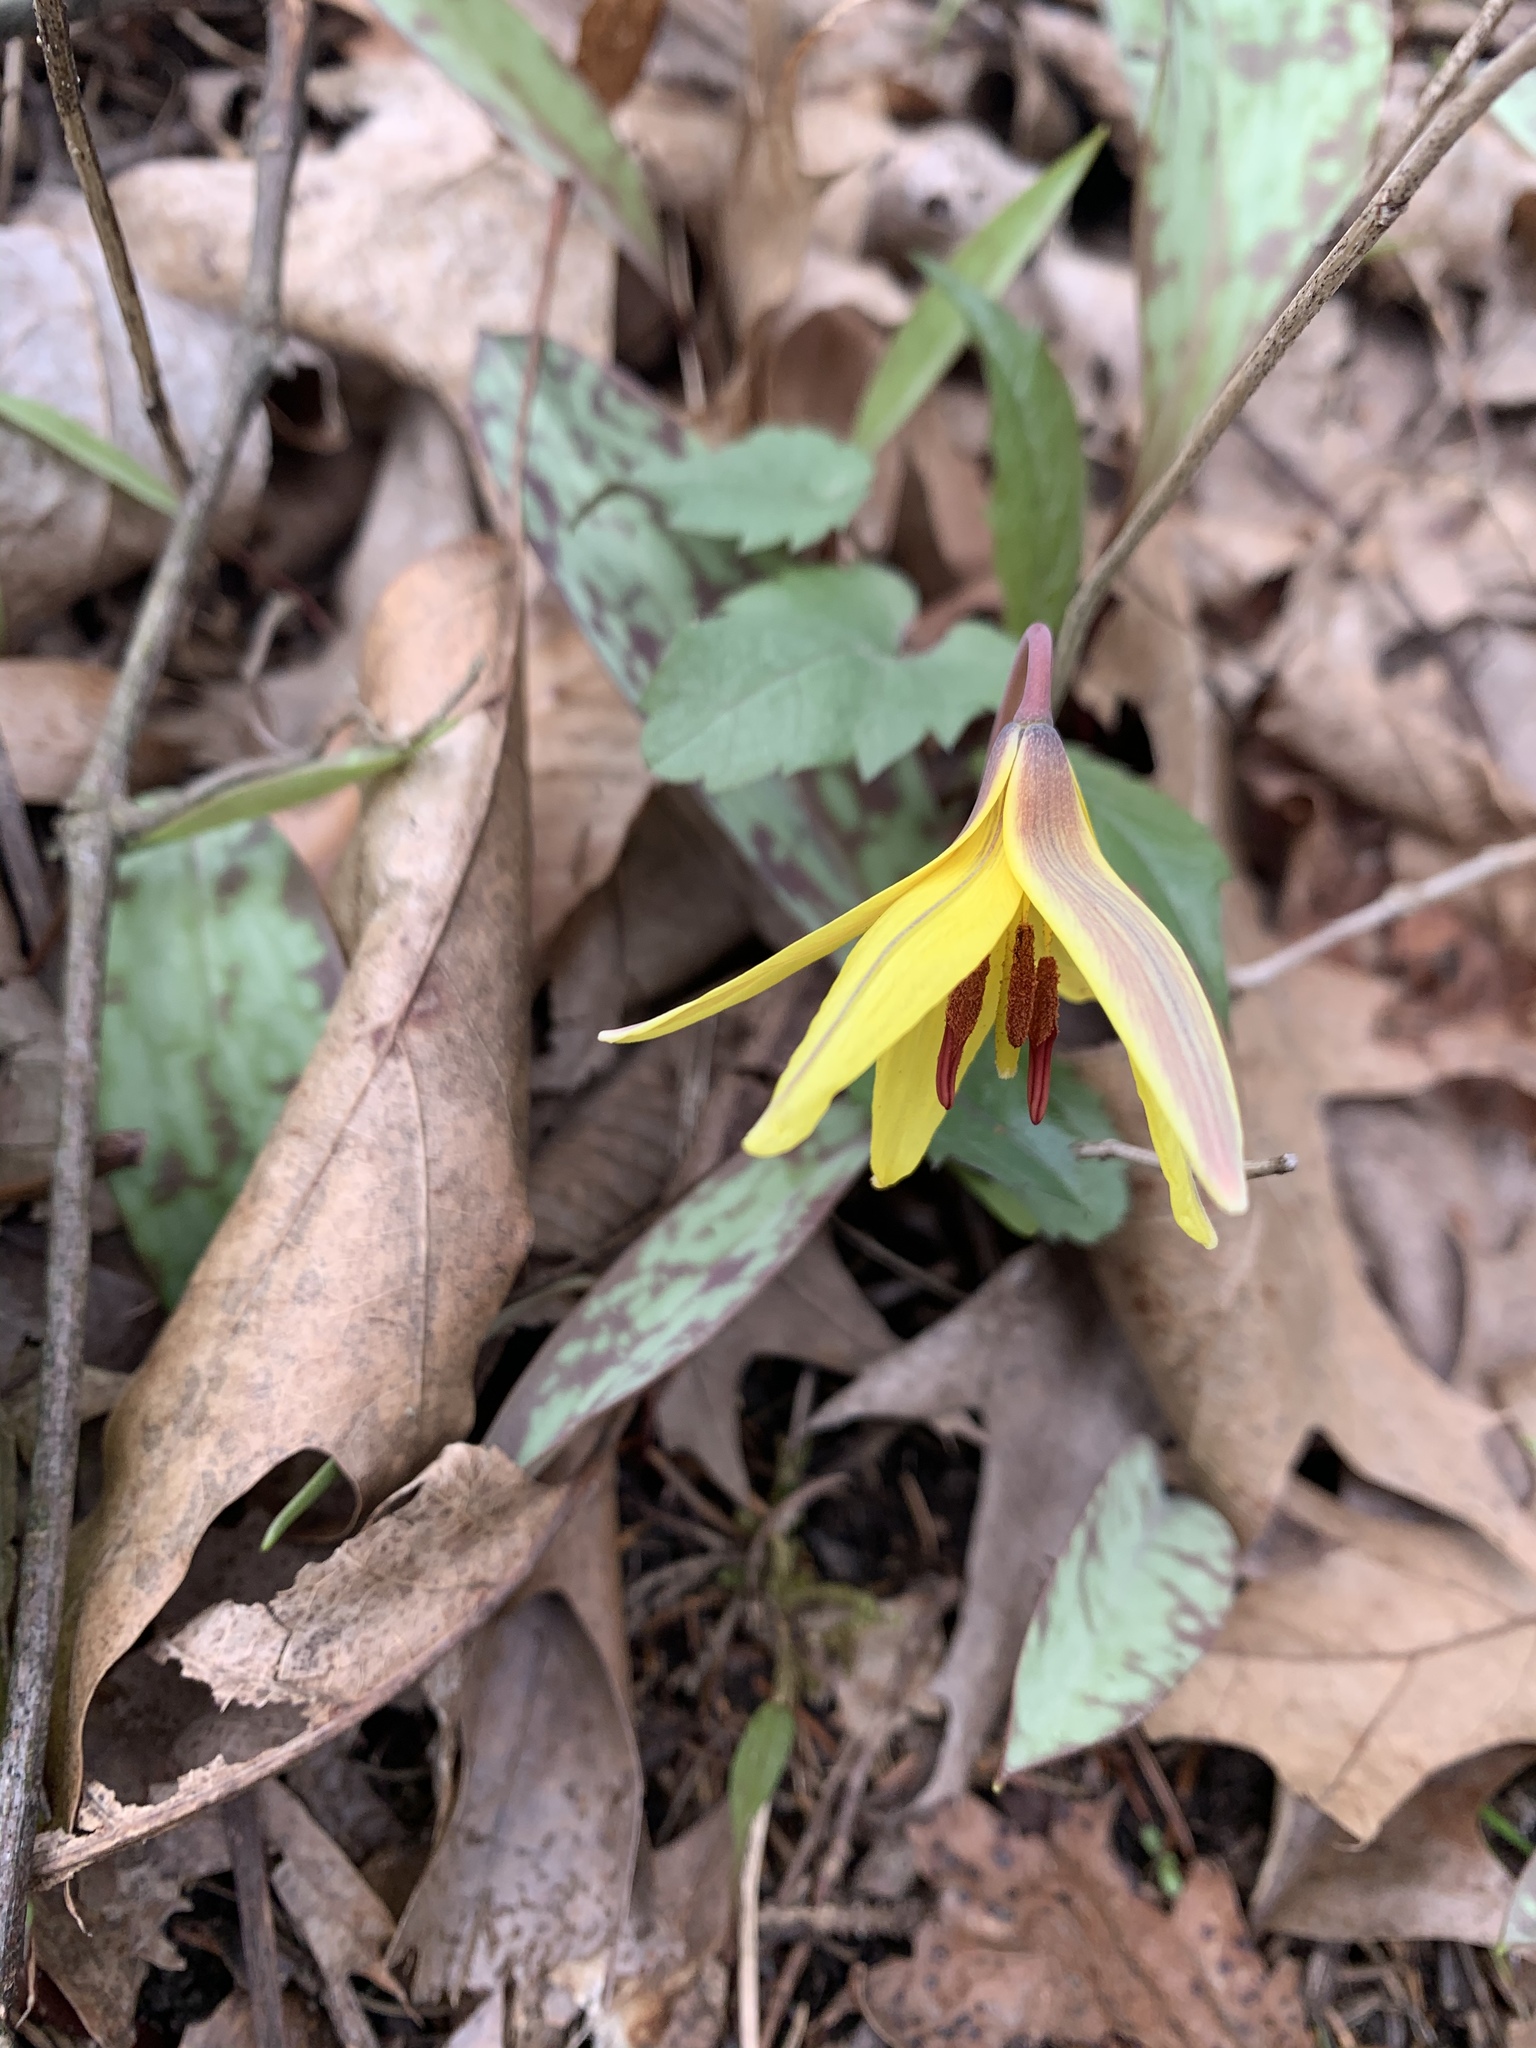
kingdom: Plantae
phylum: Tracheophyta
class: Liliopsida
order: Liliales
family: Liliaceae
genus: Erythronium
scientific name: Erythronium americanum
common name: Yellow adder's-tongue
